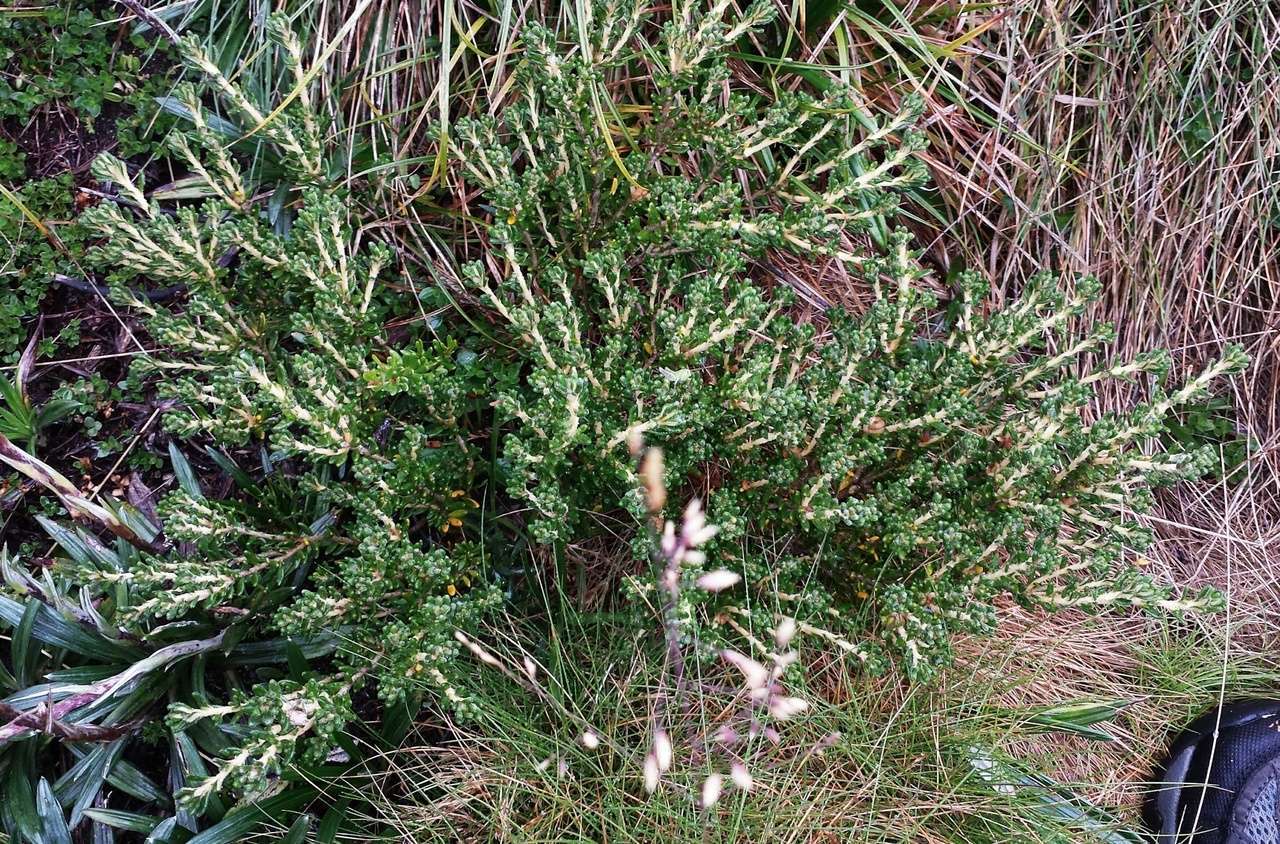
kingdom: Plantae
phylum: Tracheophyta
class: Magnoliopsida
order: Sapindales
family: Rutaceae
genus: Asterolasia
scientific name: Asterolasia trymalioides
